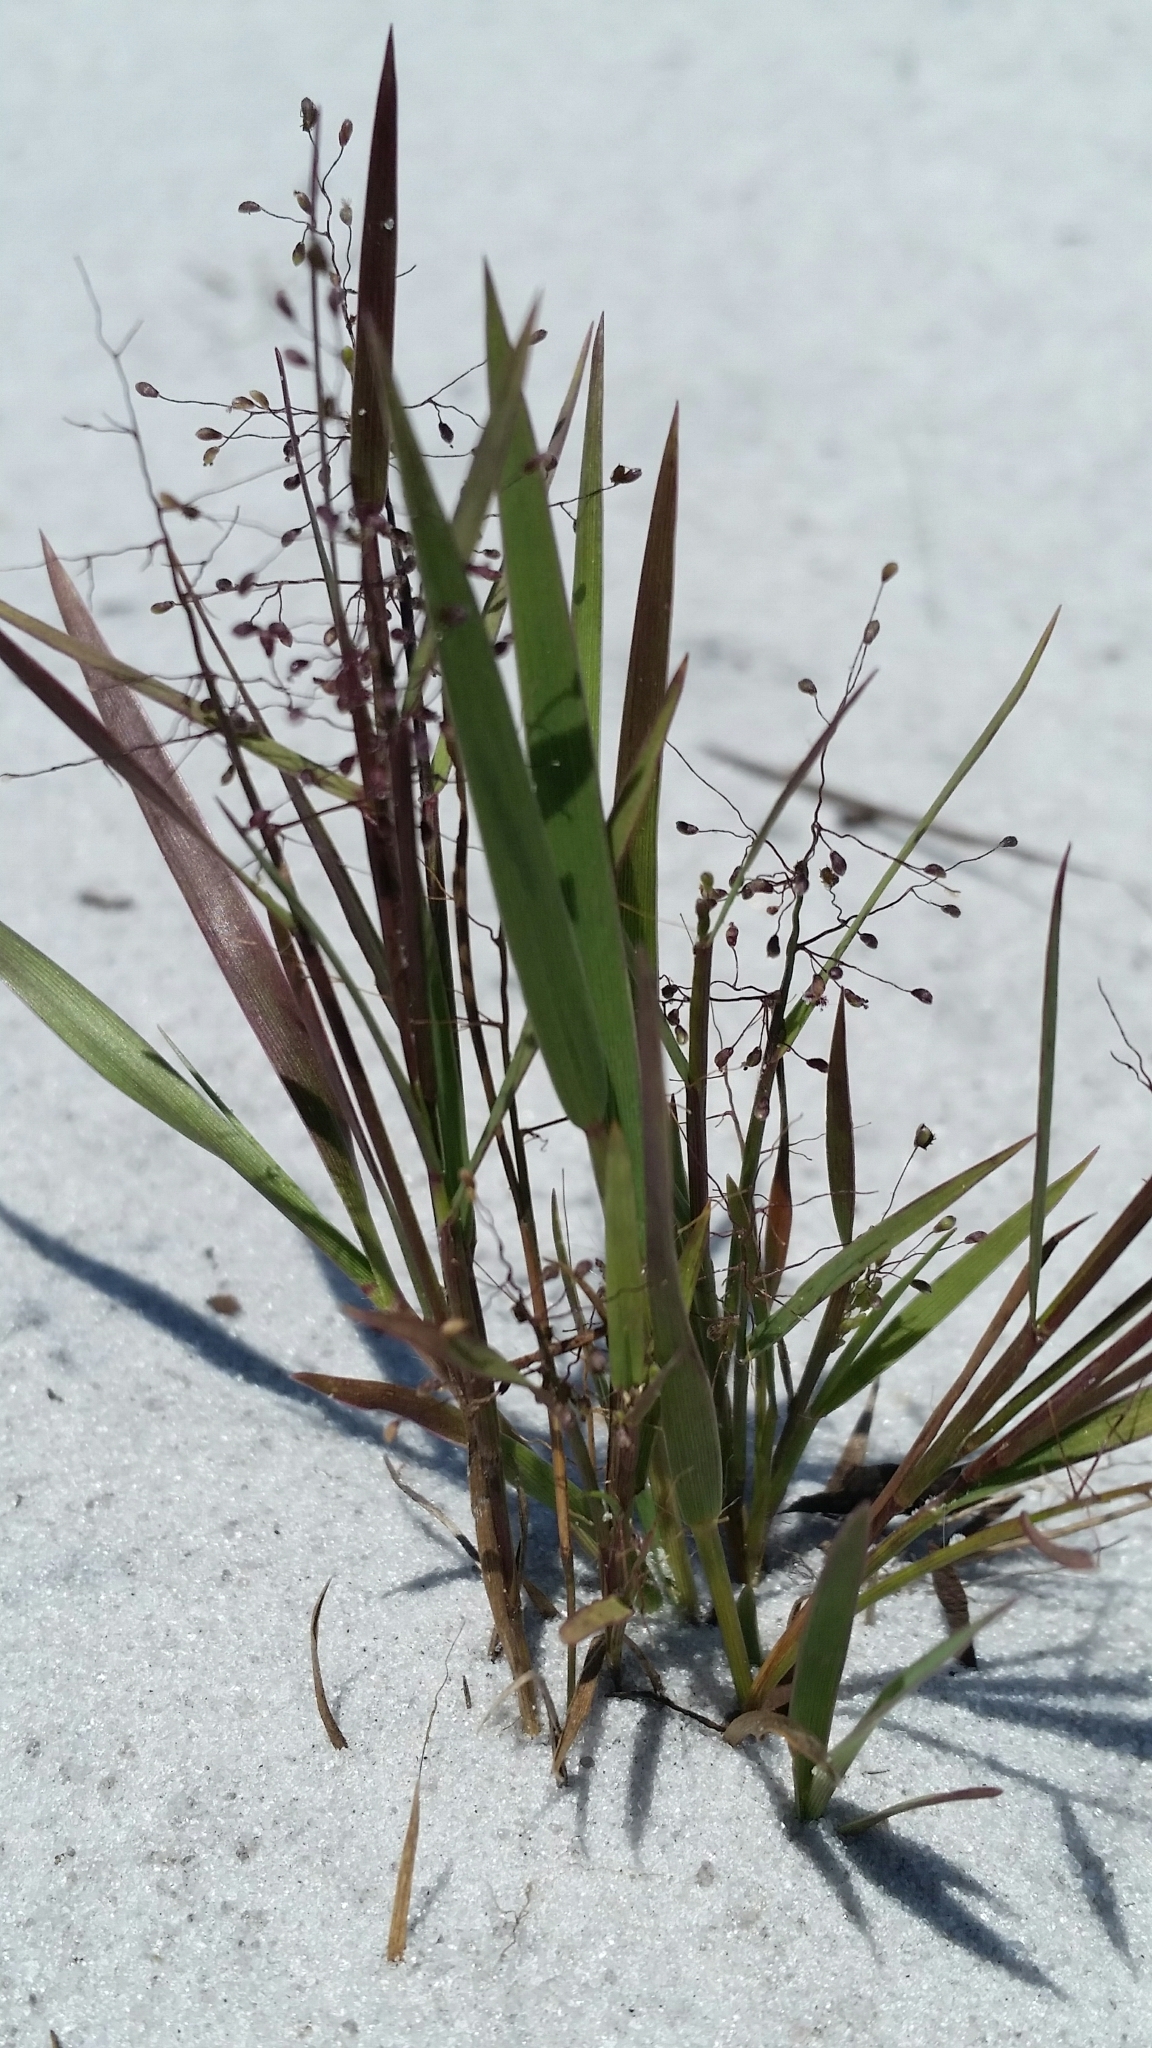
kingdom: Plantae
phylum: Tracheophyta
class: Liliopsida
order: Poales
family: Poaceae
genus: Dichanthelium
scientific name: Dichanthelium chamaelonche
